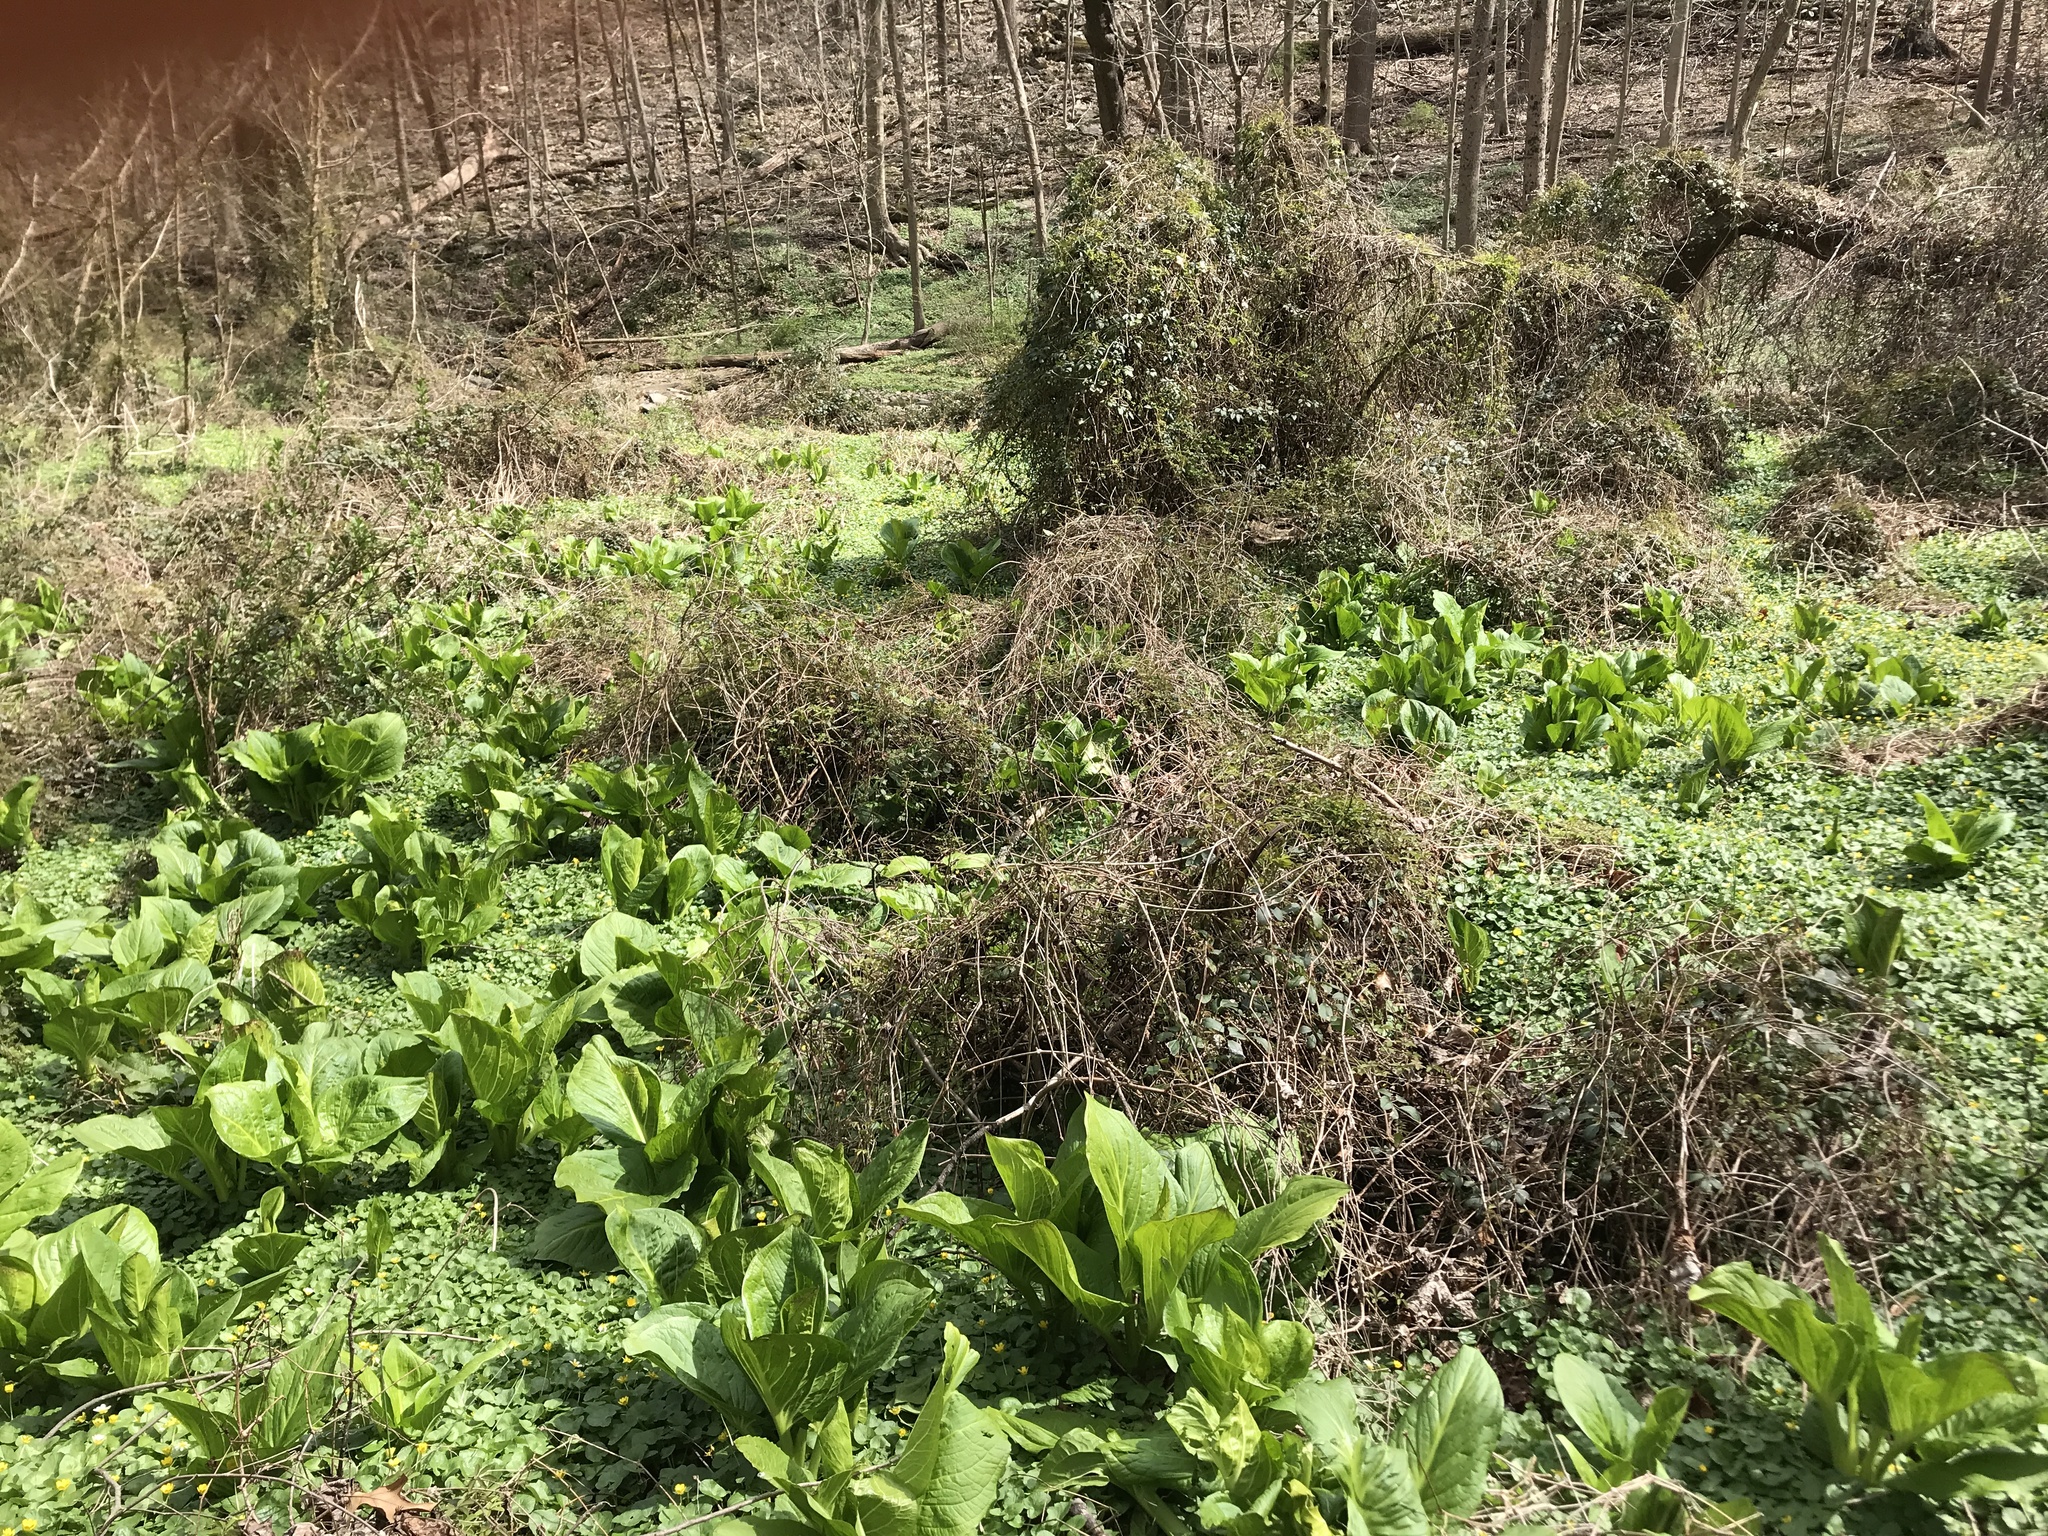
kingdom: Plantae
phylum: Tracheophyta
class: Liliopsida
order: Alismatales
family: Araceae
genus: Symplocarpus
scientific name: Symplocarpus foetidus
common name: Eastern skunk cabbage
